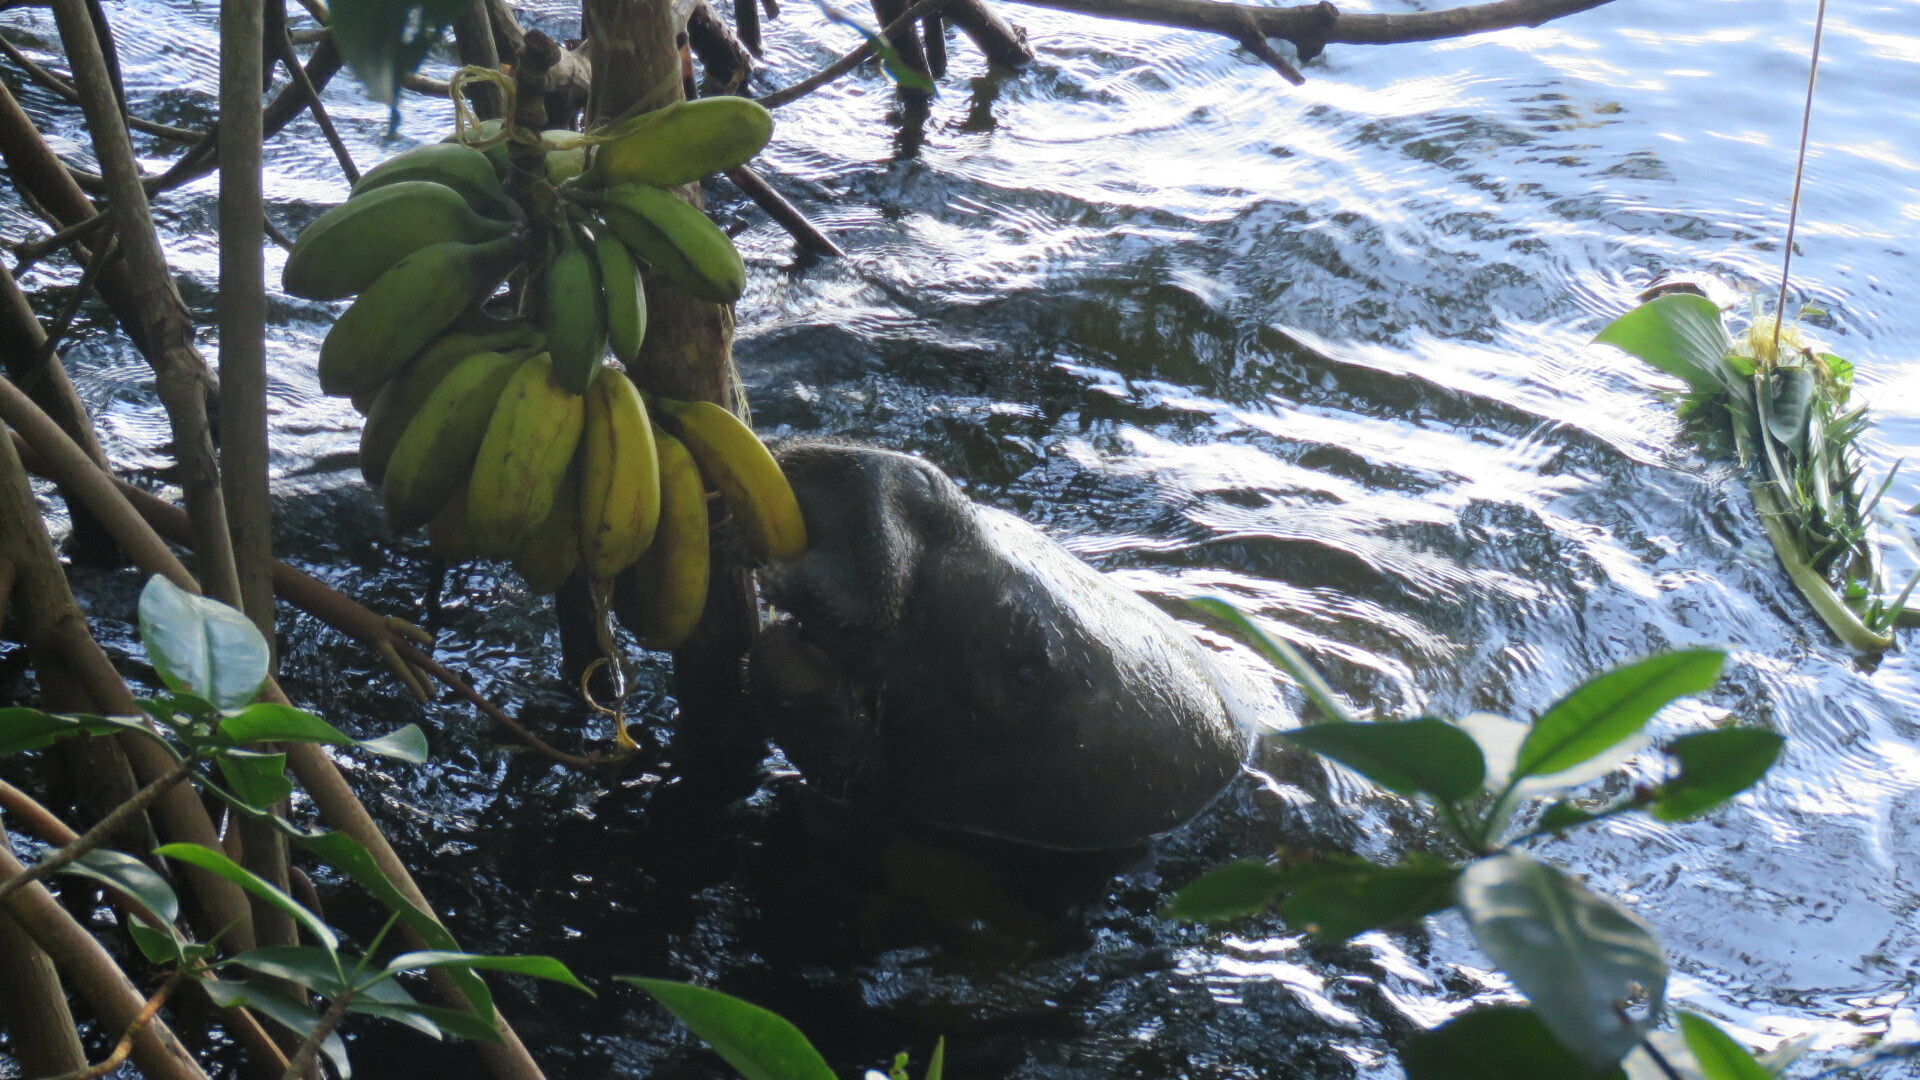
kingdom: Animalia
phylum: Chordata
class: Mammalia
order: Sirenia
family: Trichechidae
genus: Trichechus
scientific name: Trichechus manatus
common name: West indian manatee
